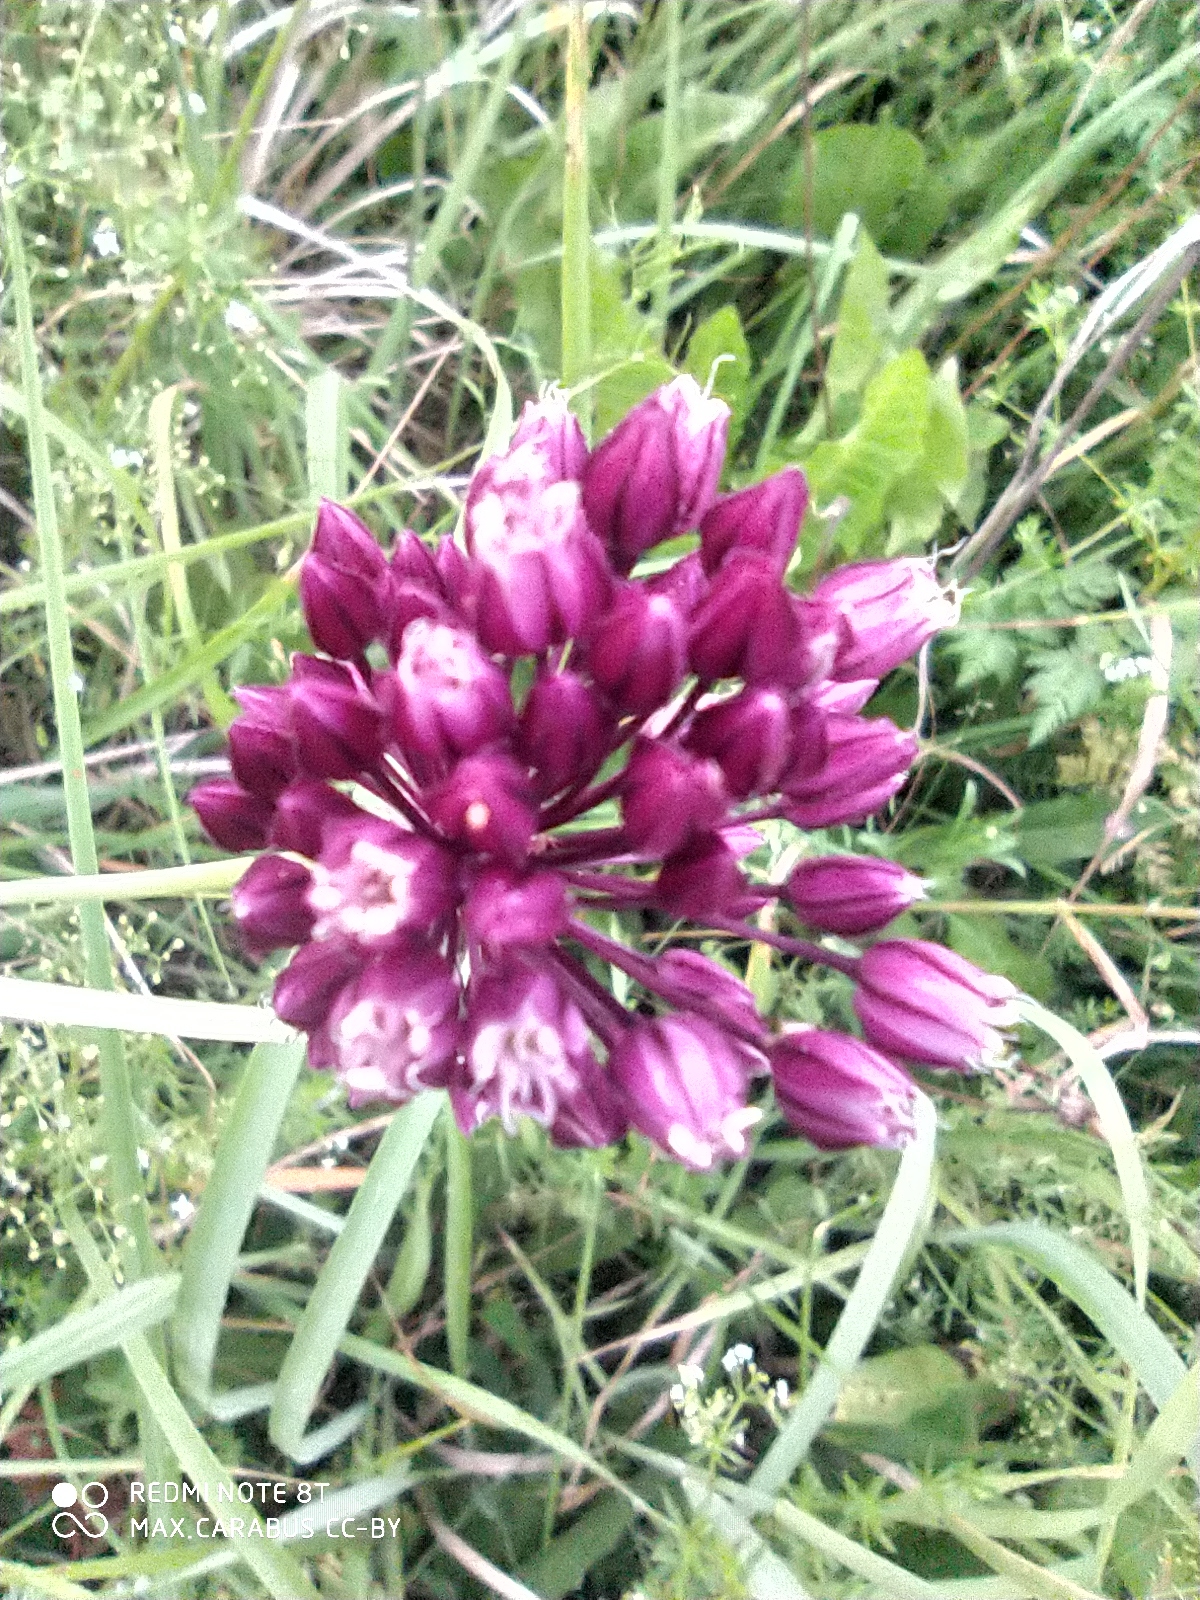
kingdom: Plantae
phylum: Tracheophyta
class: Liliopsida
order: Asparagales
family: Amaryllidaceae
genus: Allium
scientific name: Allium rotundum
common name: Sand leek
